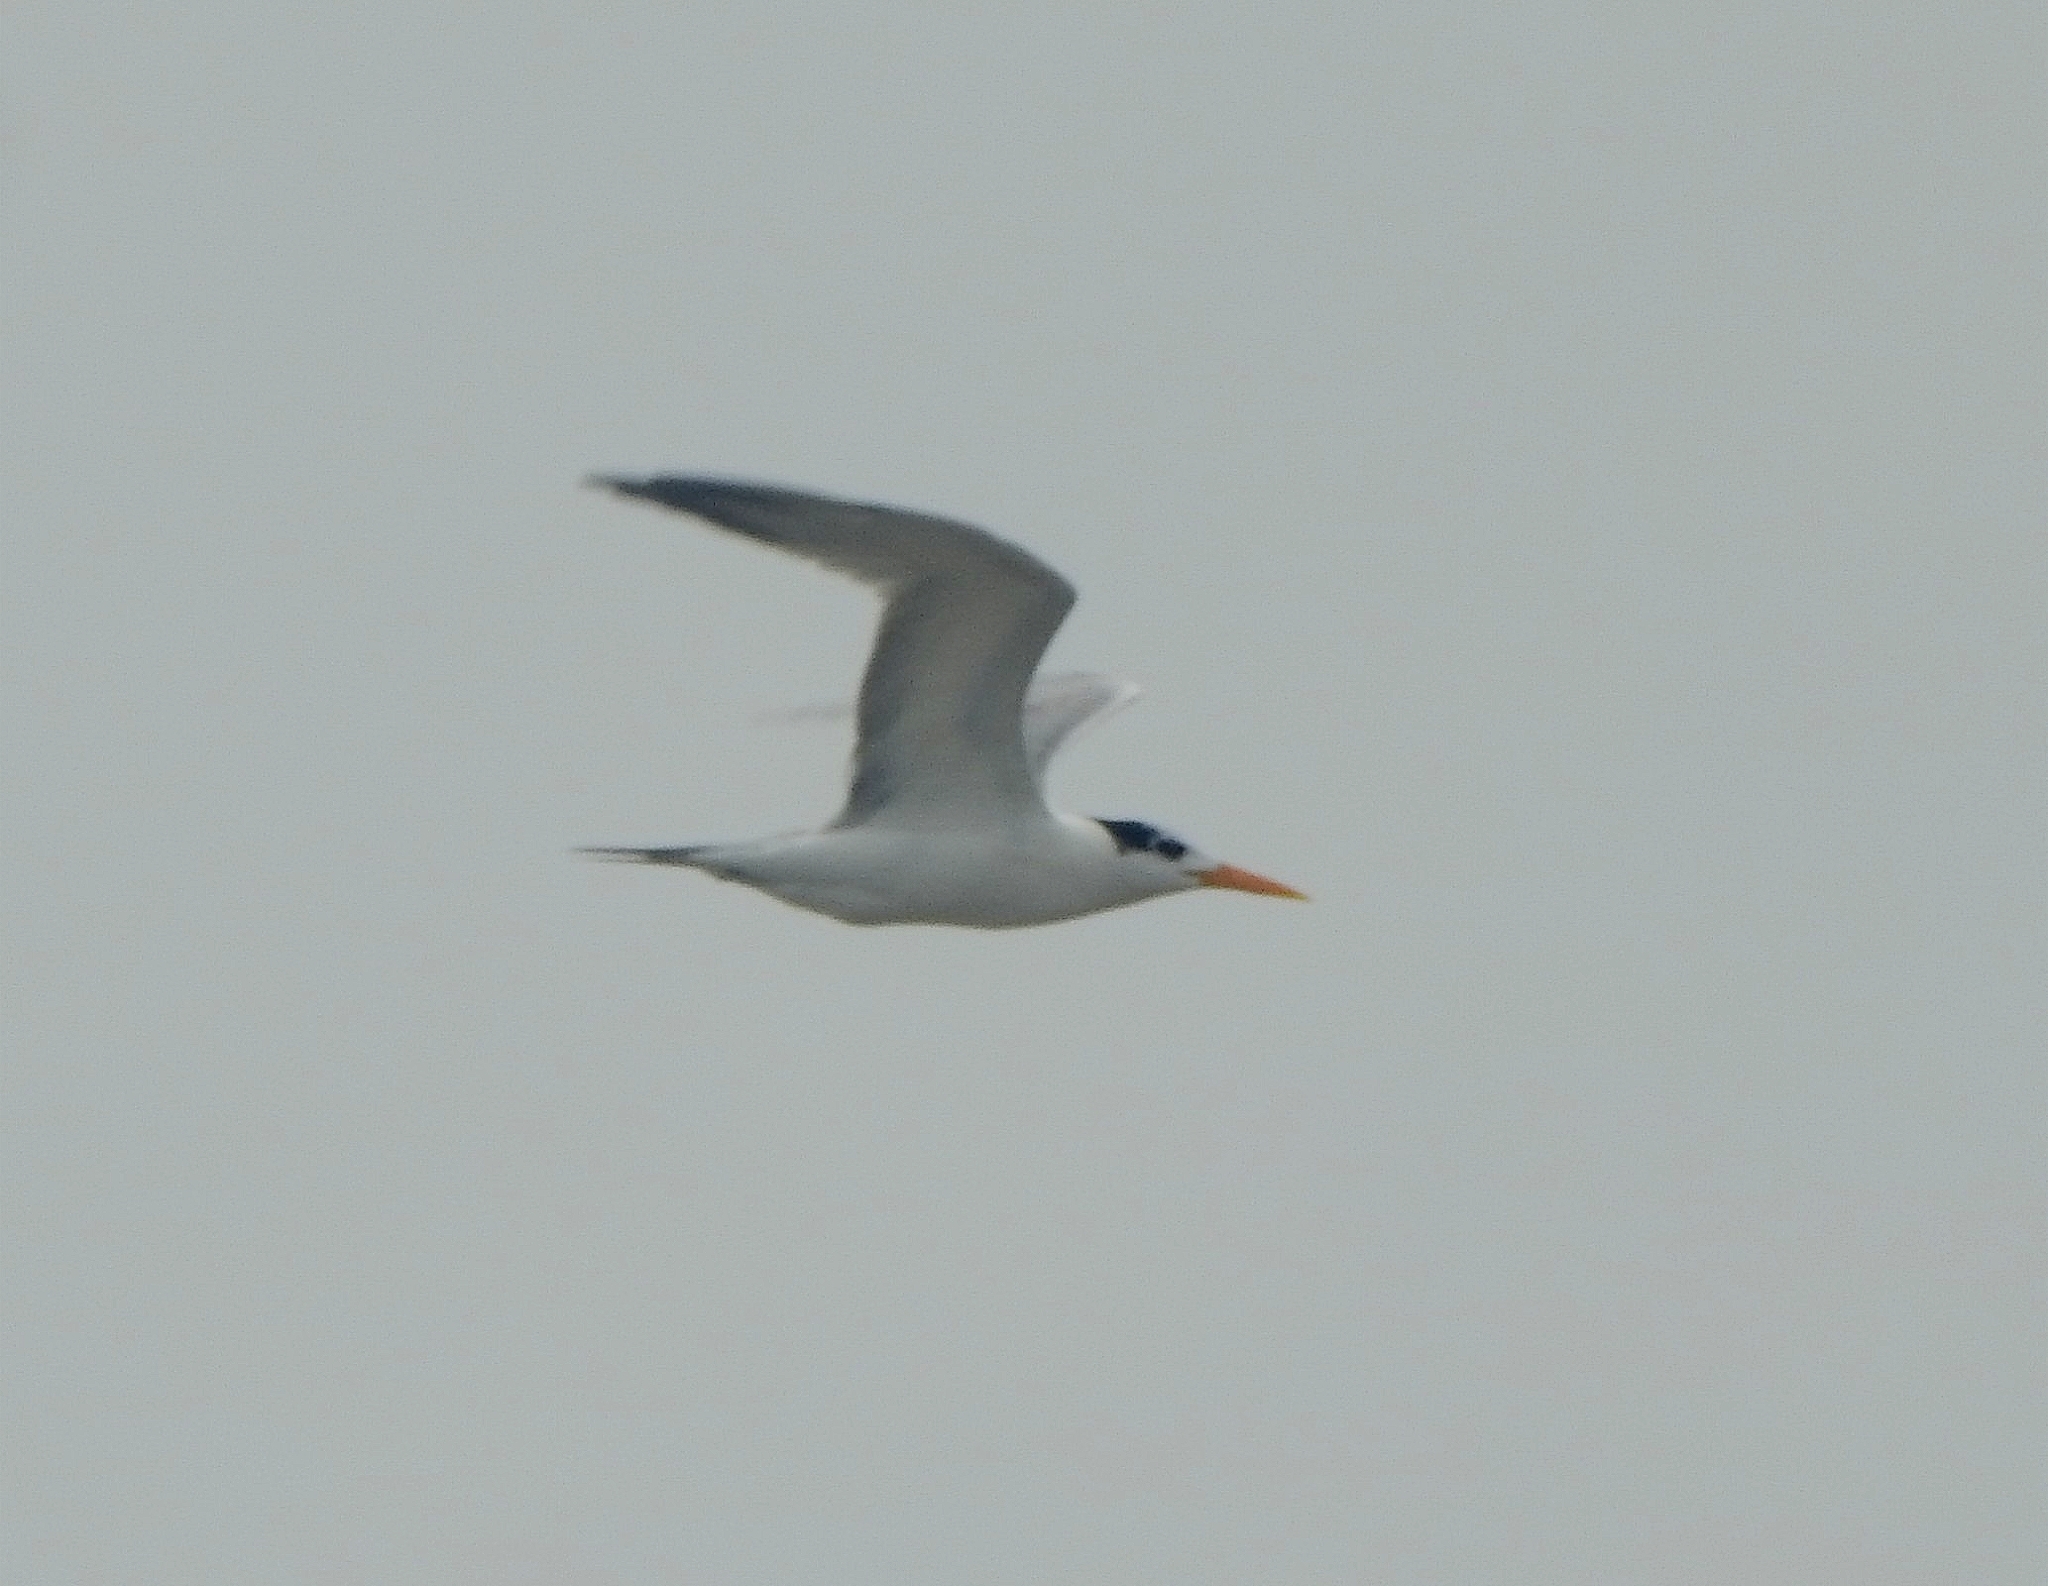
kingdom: Animalia
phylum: Chordata
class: Aves
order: Charadriiformes
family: Laridae
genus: Thalasseus
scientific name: Thalasseus bengalensis
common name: Lesser crested tern
